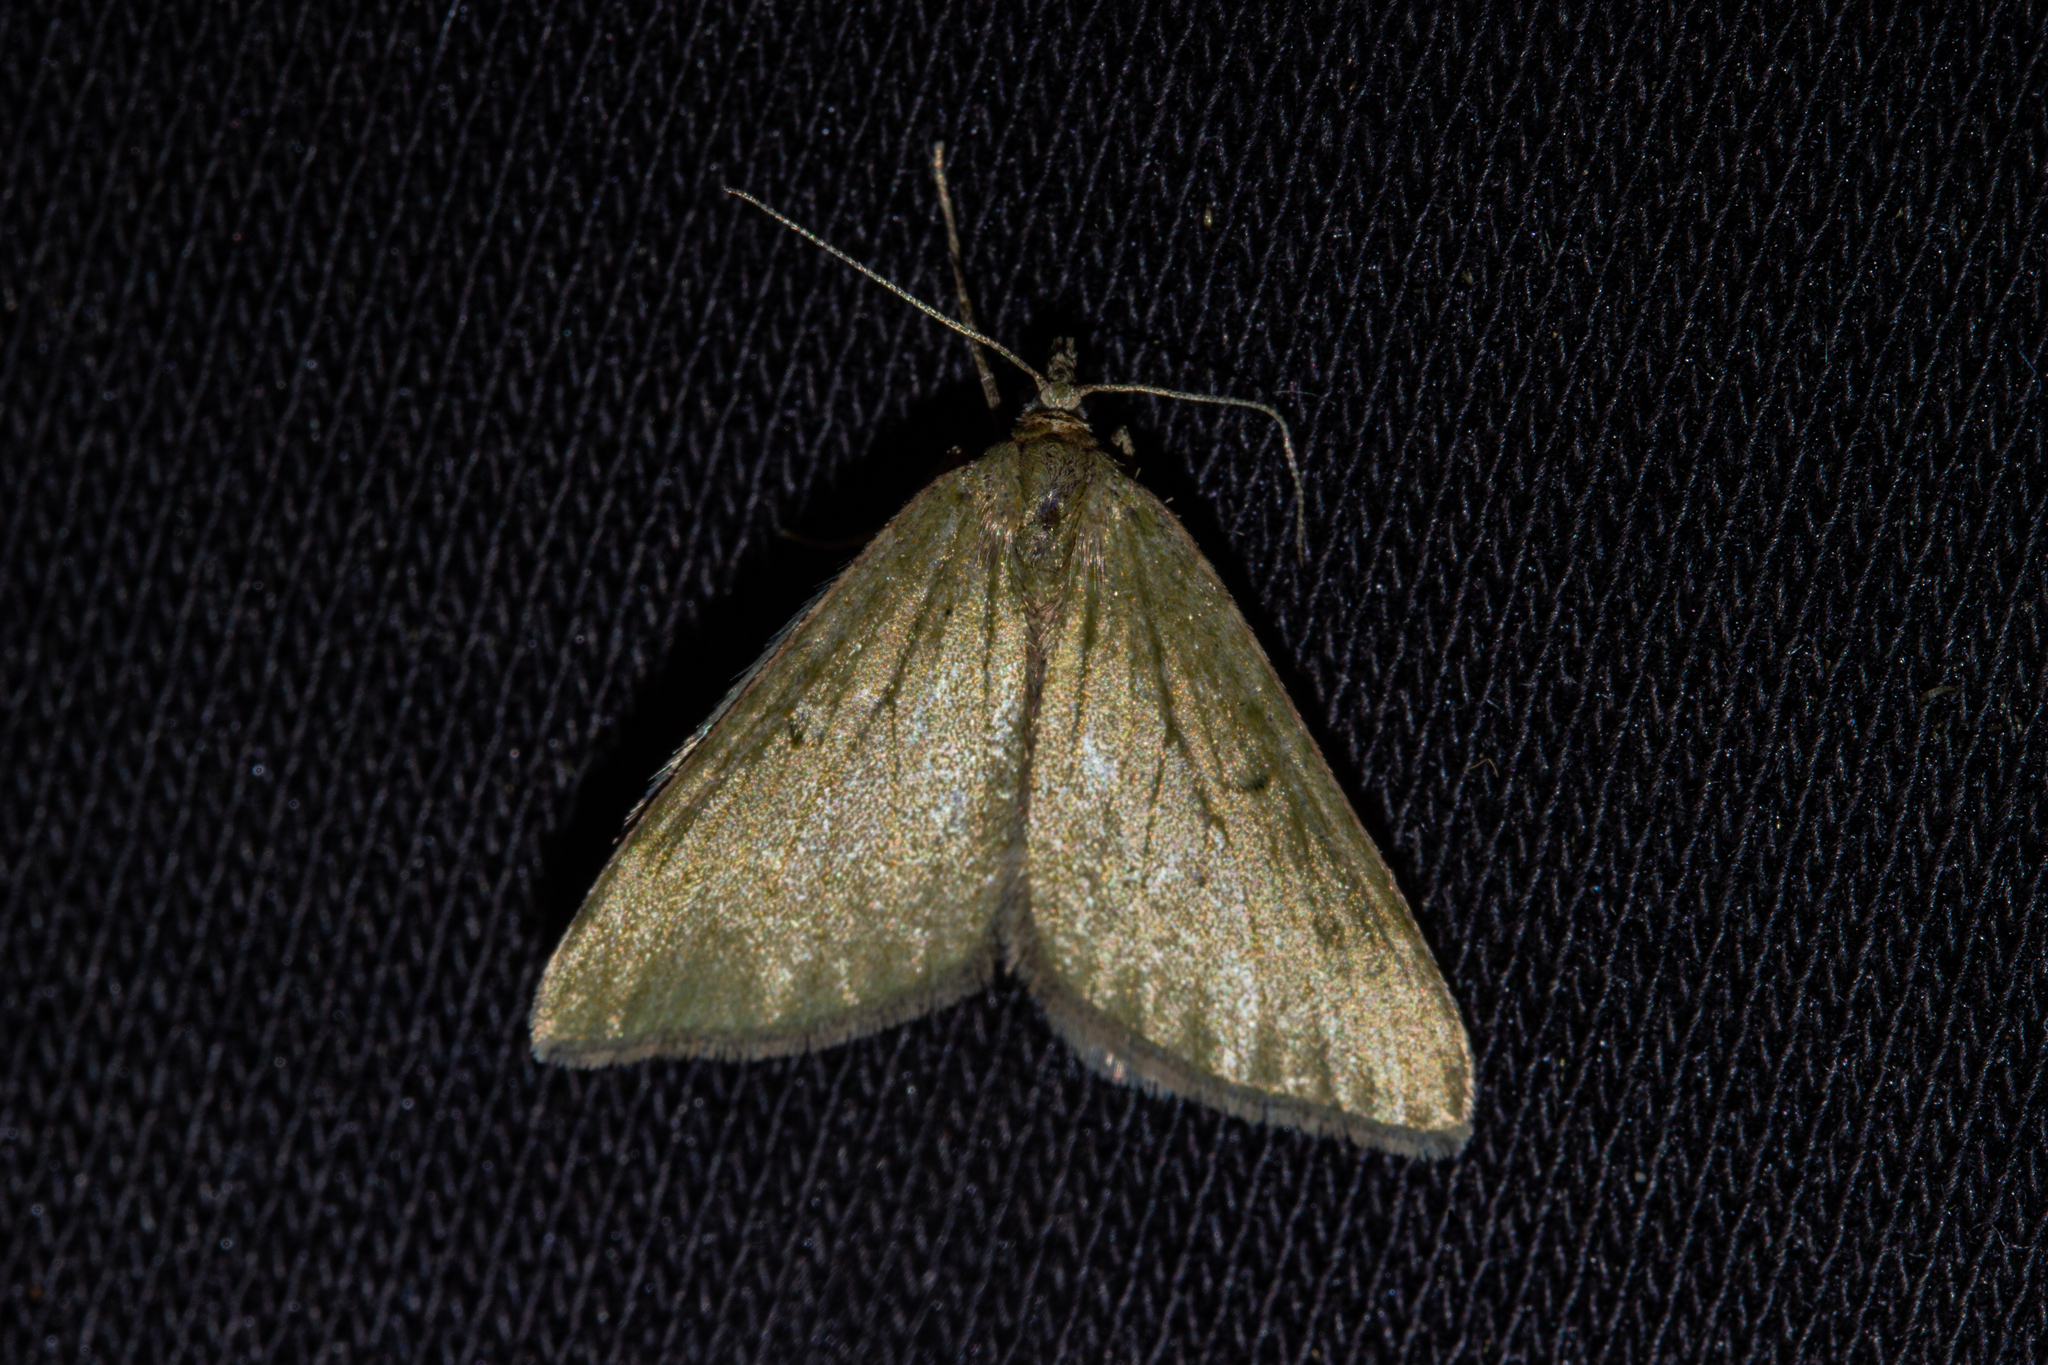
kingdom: Animalia
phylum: Arthropoda
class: Insecta
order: Lepidoptera
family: Geometridae
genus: Epyaxa
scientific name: Epyaxa rosearia
